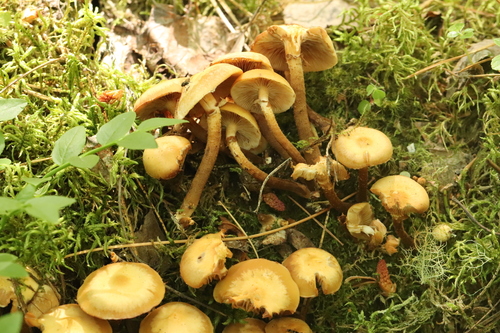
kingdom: Fungi
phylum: Basidiomycota
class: Agaricomycetes
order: Agaricales
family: Strophariaceae
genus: Kuehneromyces
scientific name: Kuehneromyces mutabilis
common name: Sheathed woodtuft
